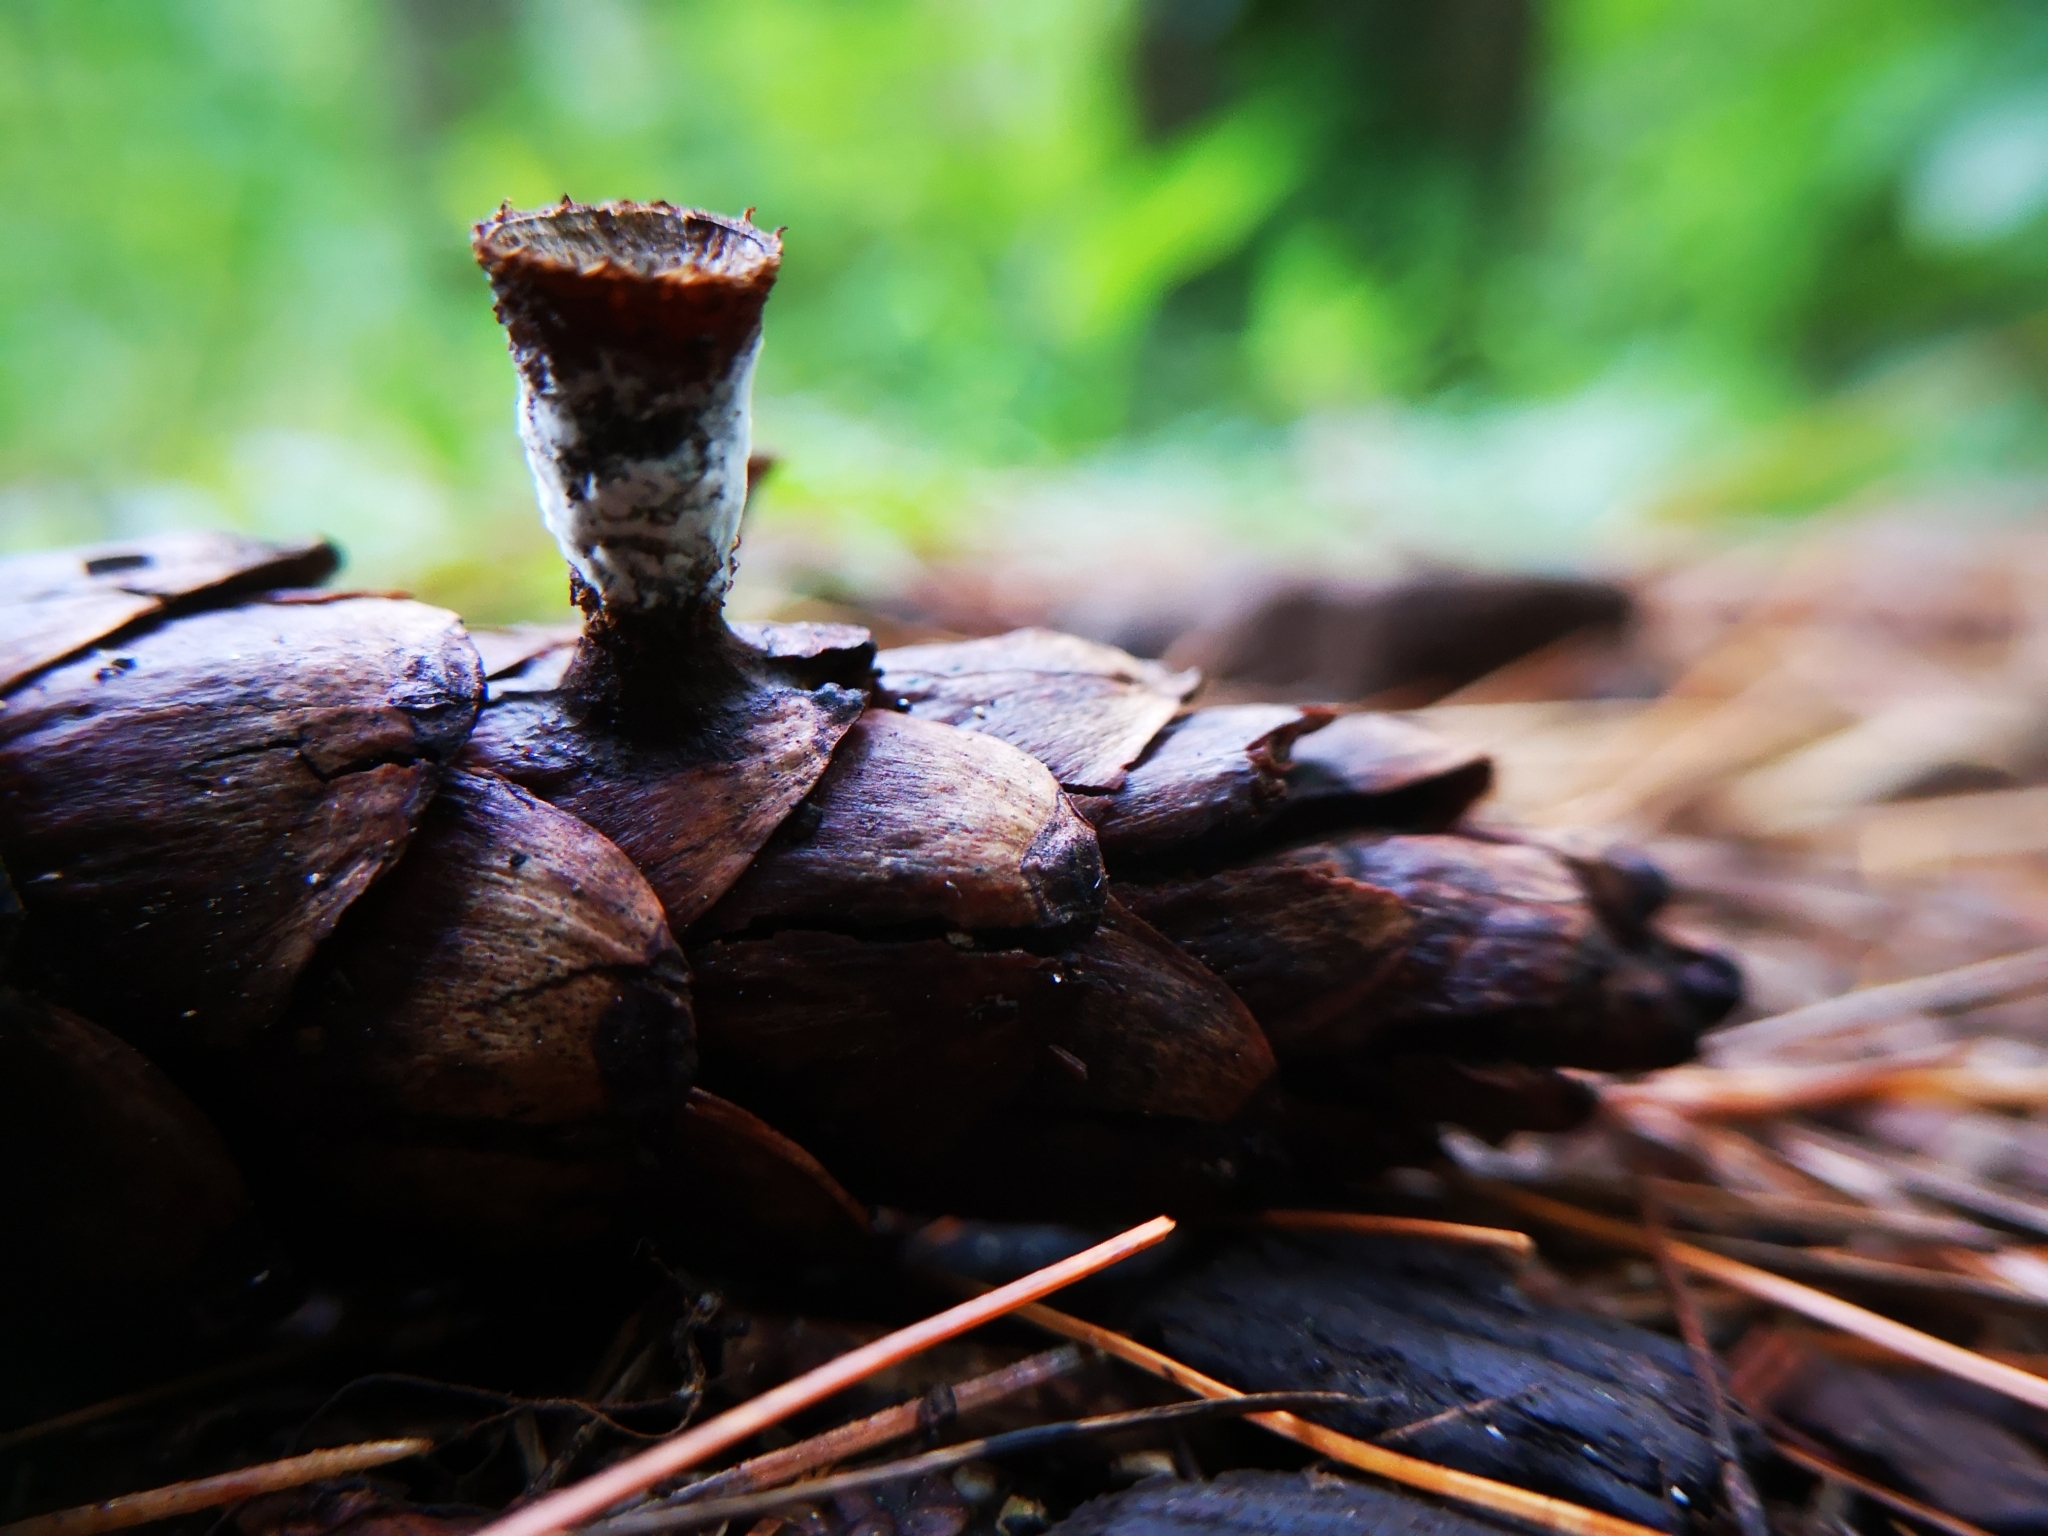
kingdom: Fungi
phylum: Basidiomycota
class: Agaricomycetes
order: Agaricales
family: Agaricaceae
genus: Cyathus
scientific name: Cyathus striatus
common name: Fluted bird's nest
